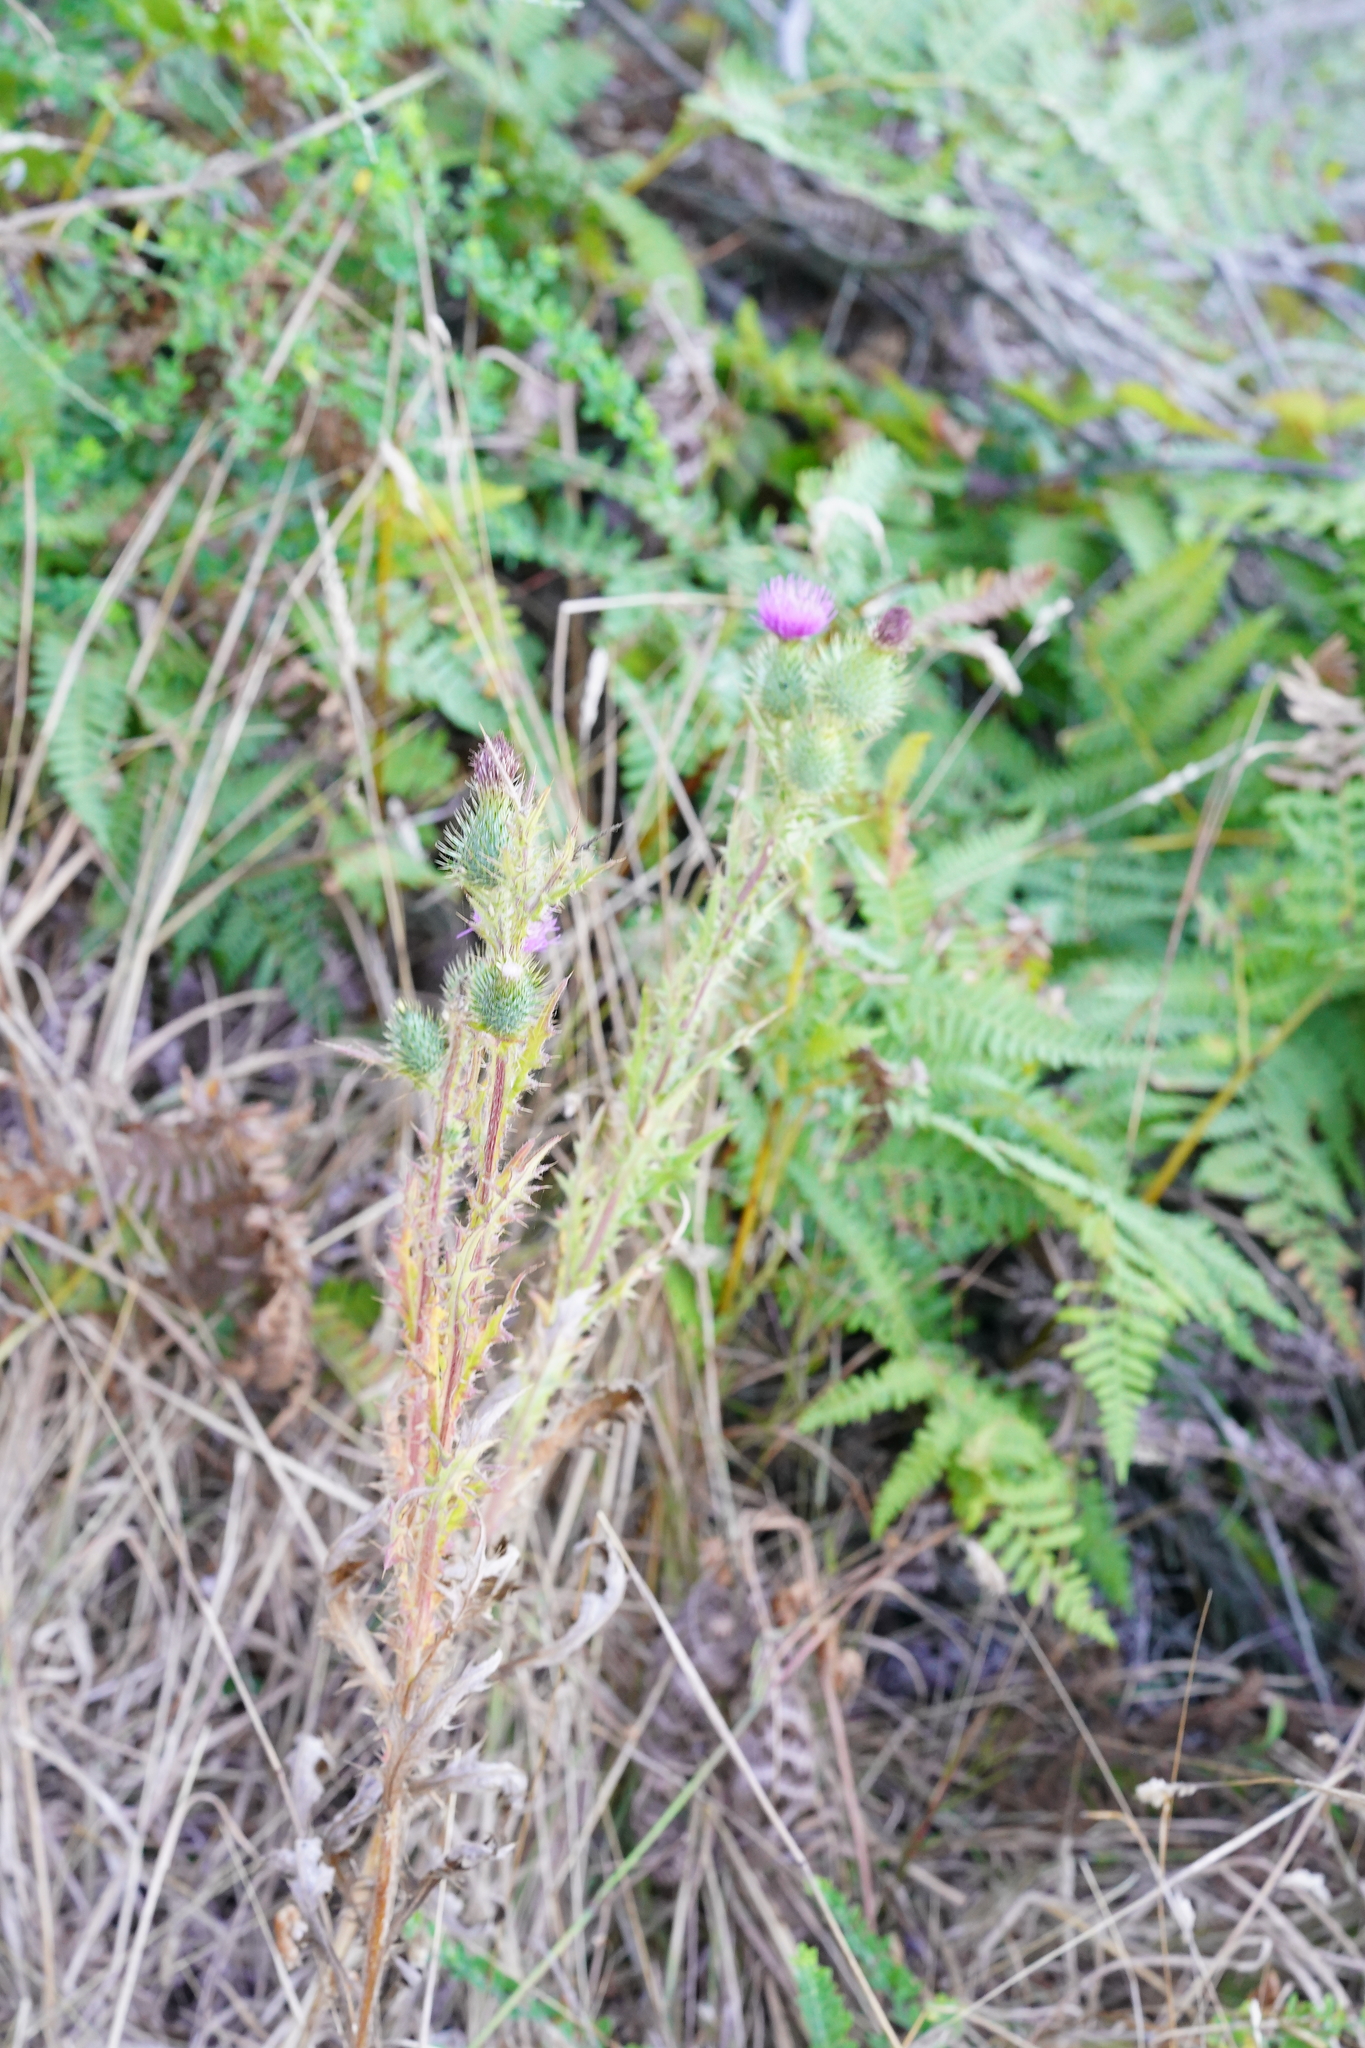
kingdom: Plantae
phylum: Tracheophyta
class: Magnoliopsida
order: Asterales
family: Asteraceae
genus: Cirsium
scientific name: Cirsium vulgare
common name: Bull thistle
